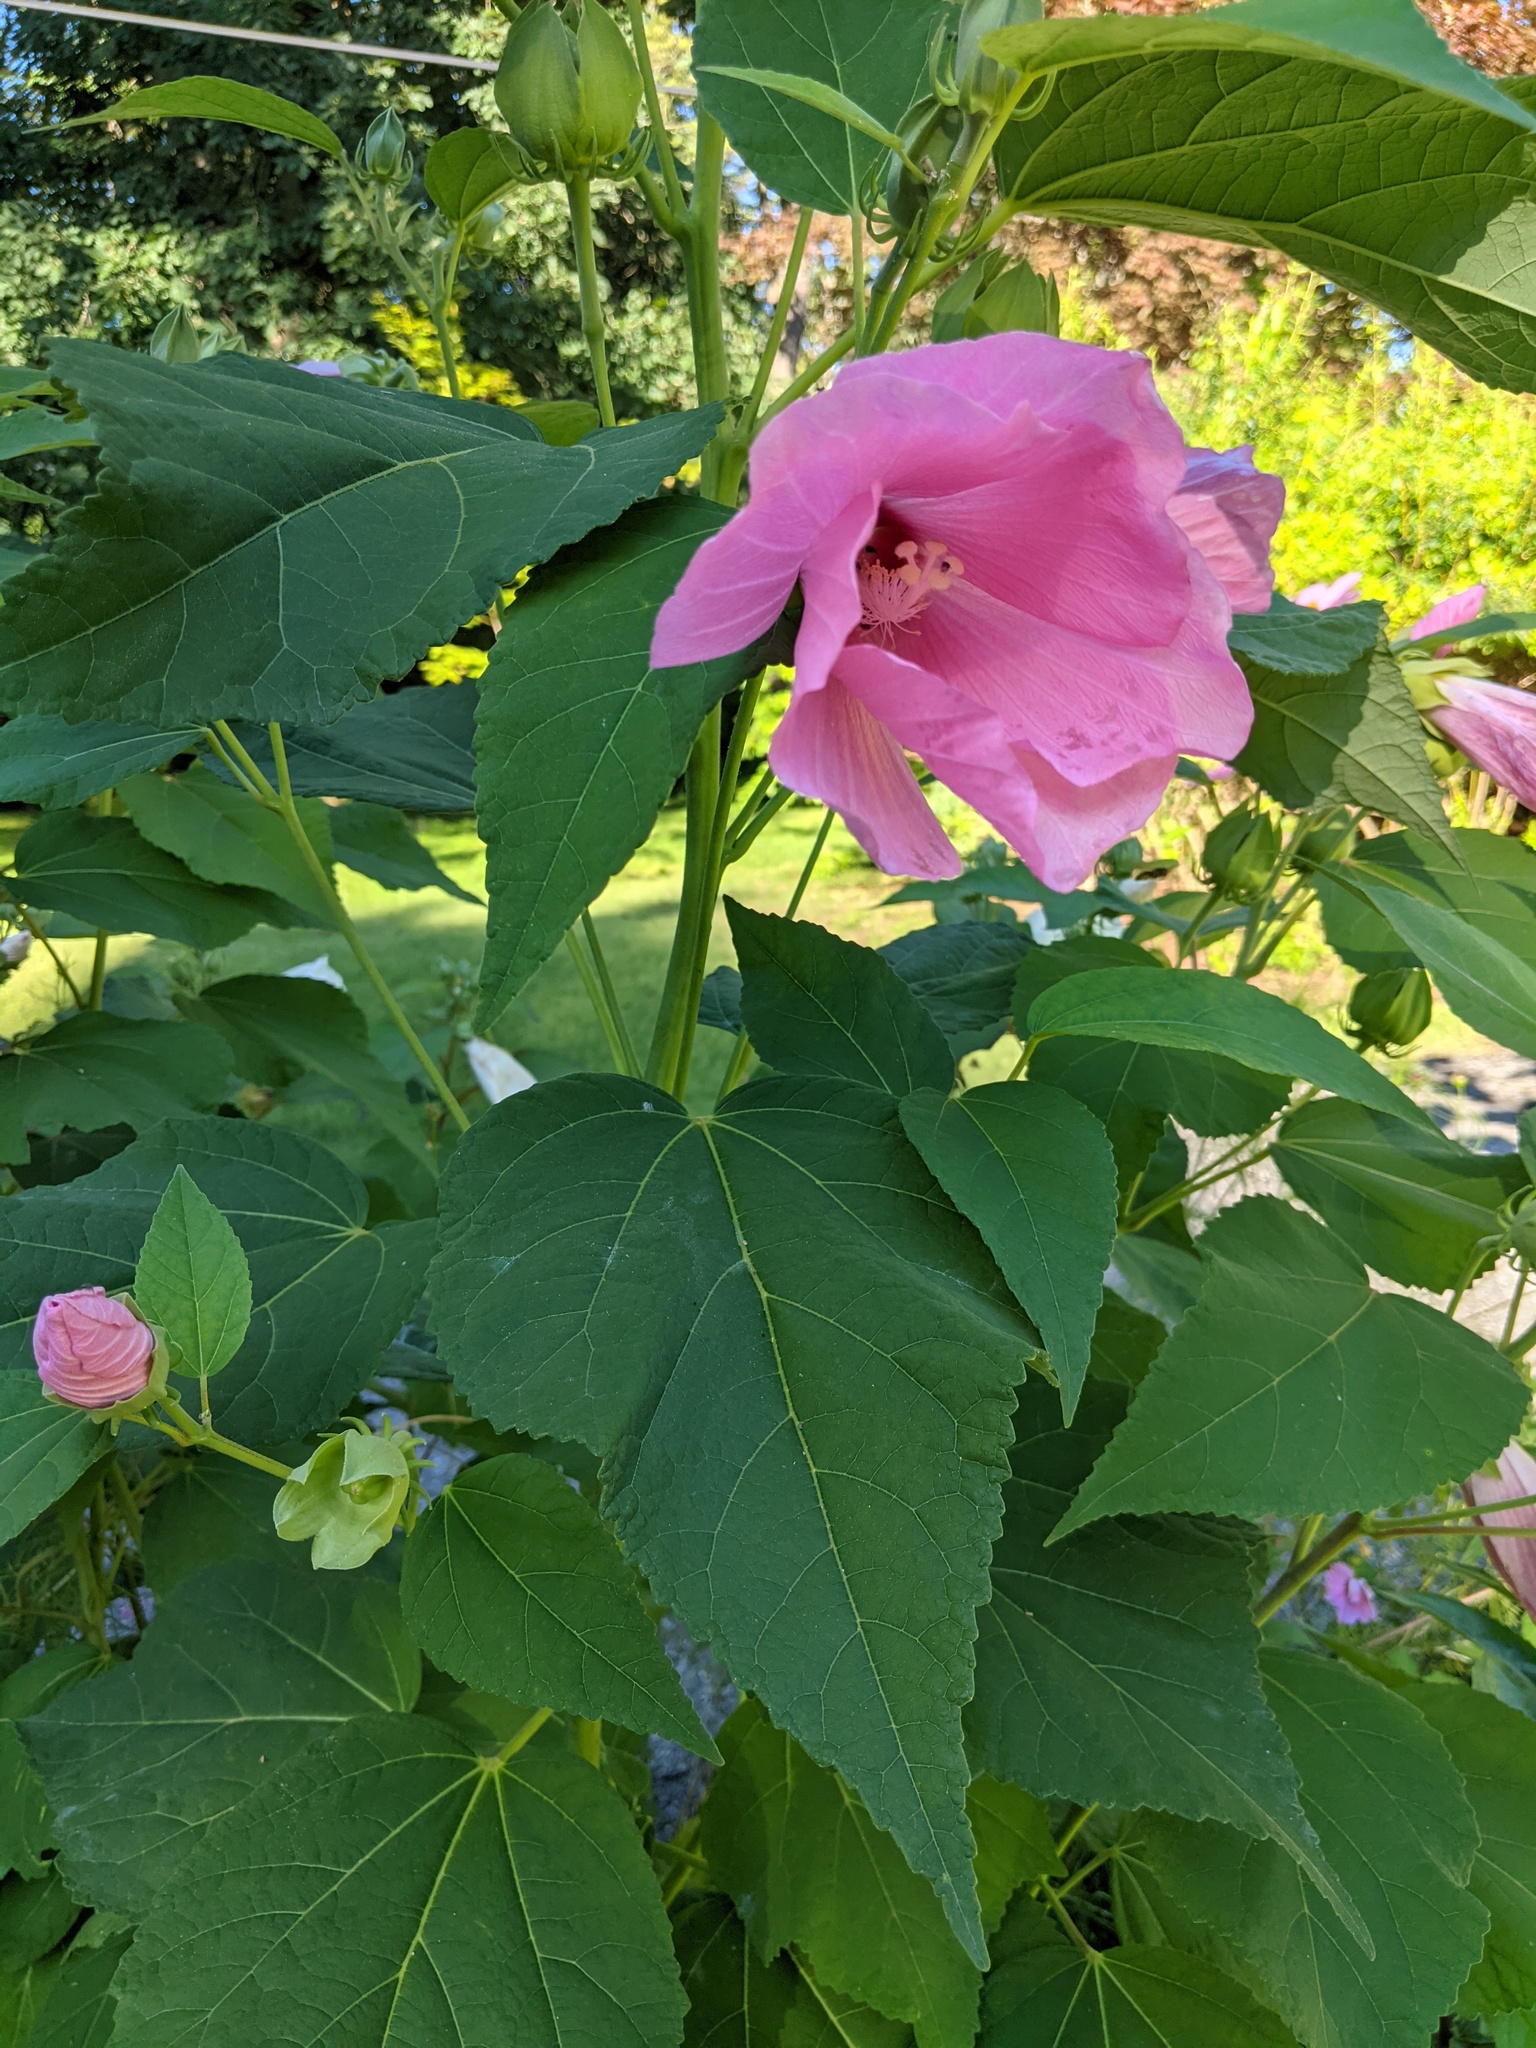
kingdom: Plantae
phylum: Tracheophyta
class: Magnoliopsida
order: Malvales
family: Malvaceae
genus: Hibiscus
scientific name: Hibiscus moscheutos
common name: Common rose-mallow
